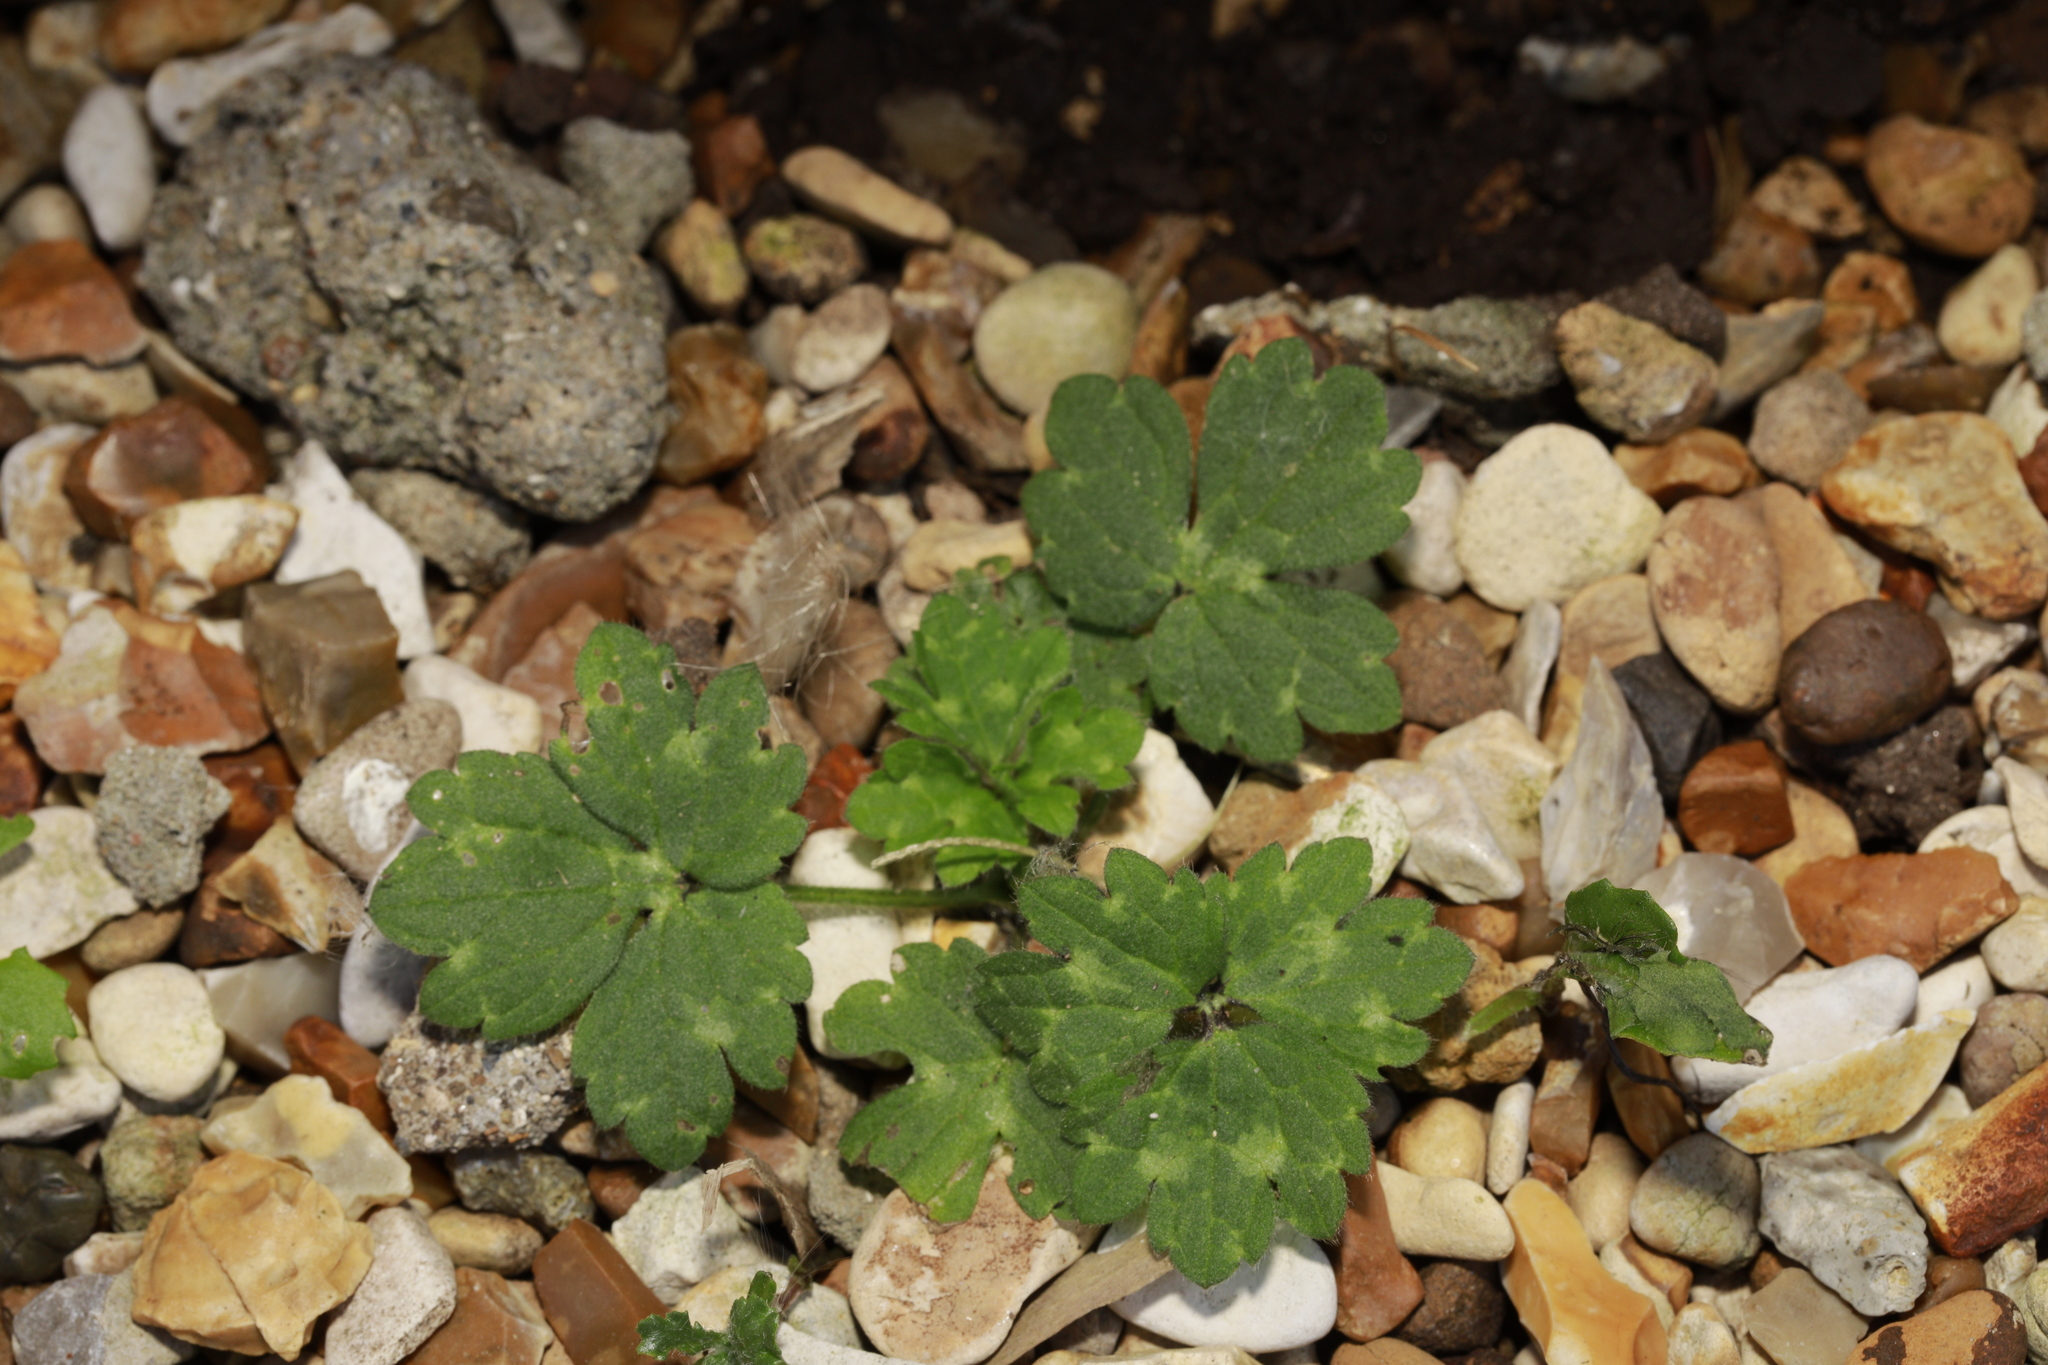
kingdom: Plantae
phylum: Tracheophyta
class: Magnoliopsida
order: Ranunculales
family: Ranunculaceae
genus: Ranunculus
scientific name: Ranunculus repens
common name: Creeping buttercup
